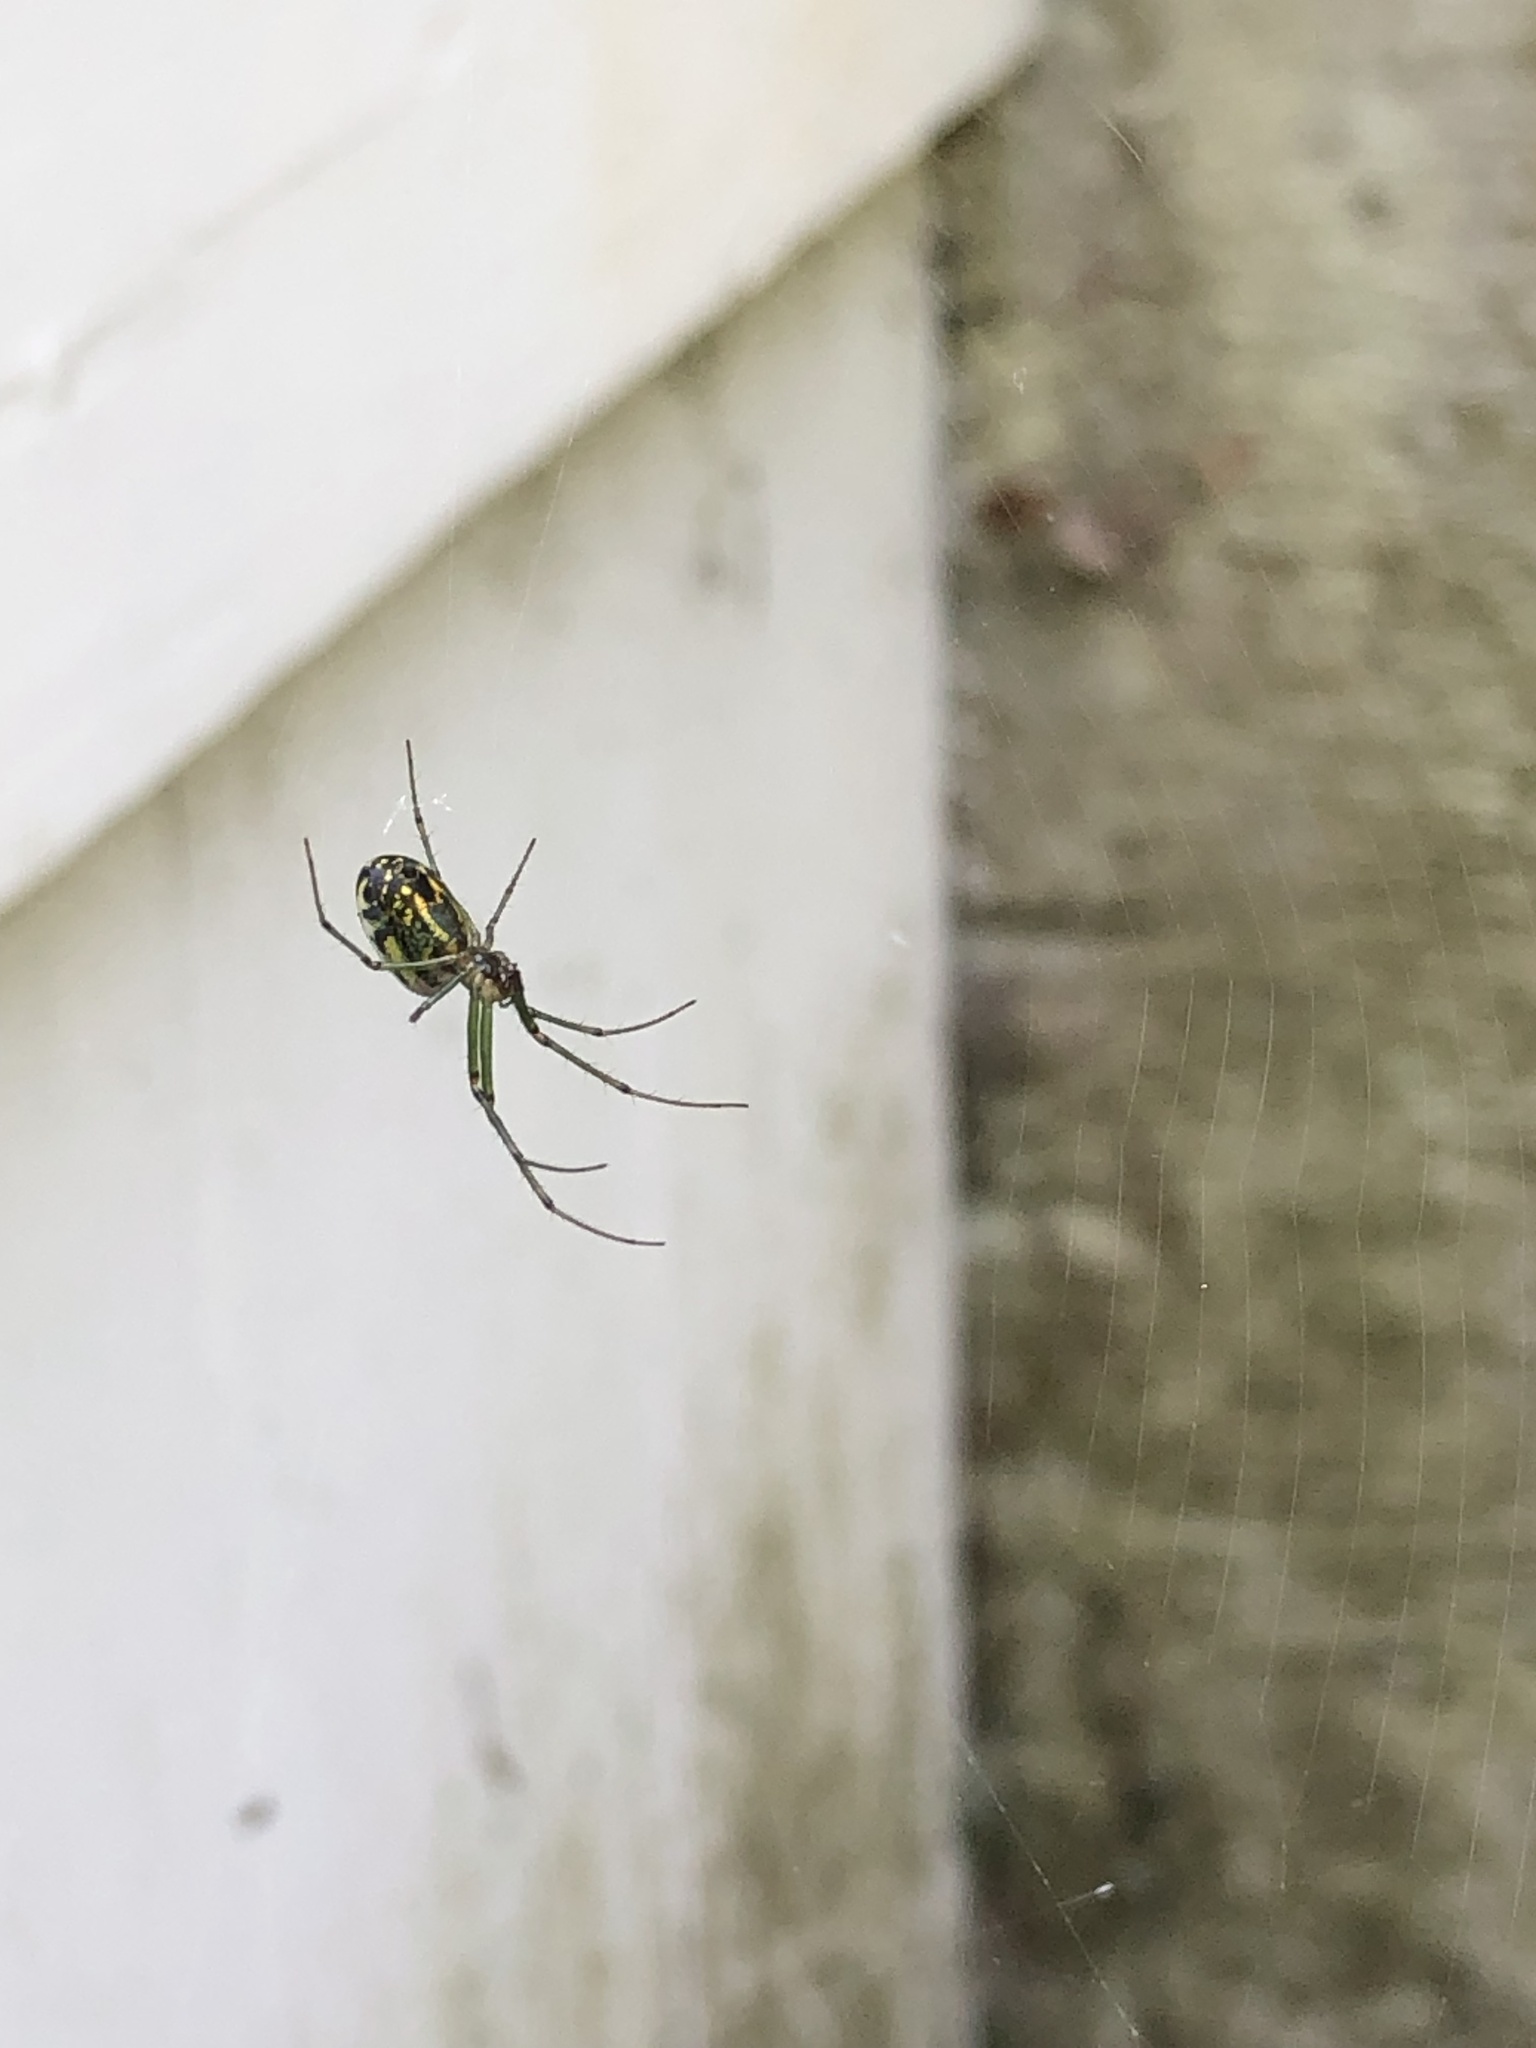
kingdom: Animalia
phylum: Arthropoda
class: Arachnida
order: Araneae
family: Tetragnathidae
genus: Leucauge
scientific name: Leucauge venusta
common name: Longjawed orb weavers
